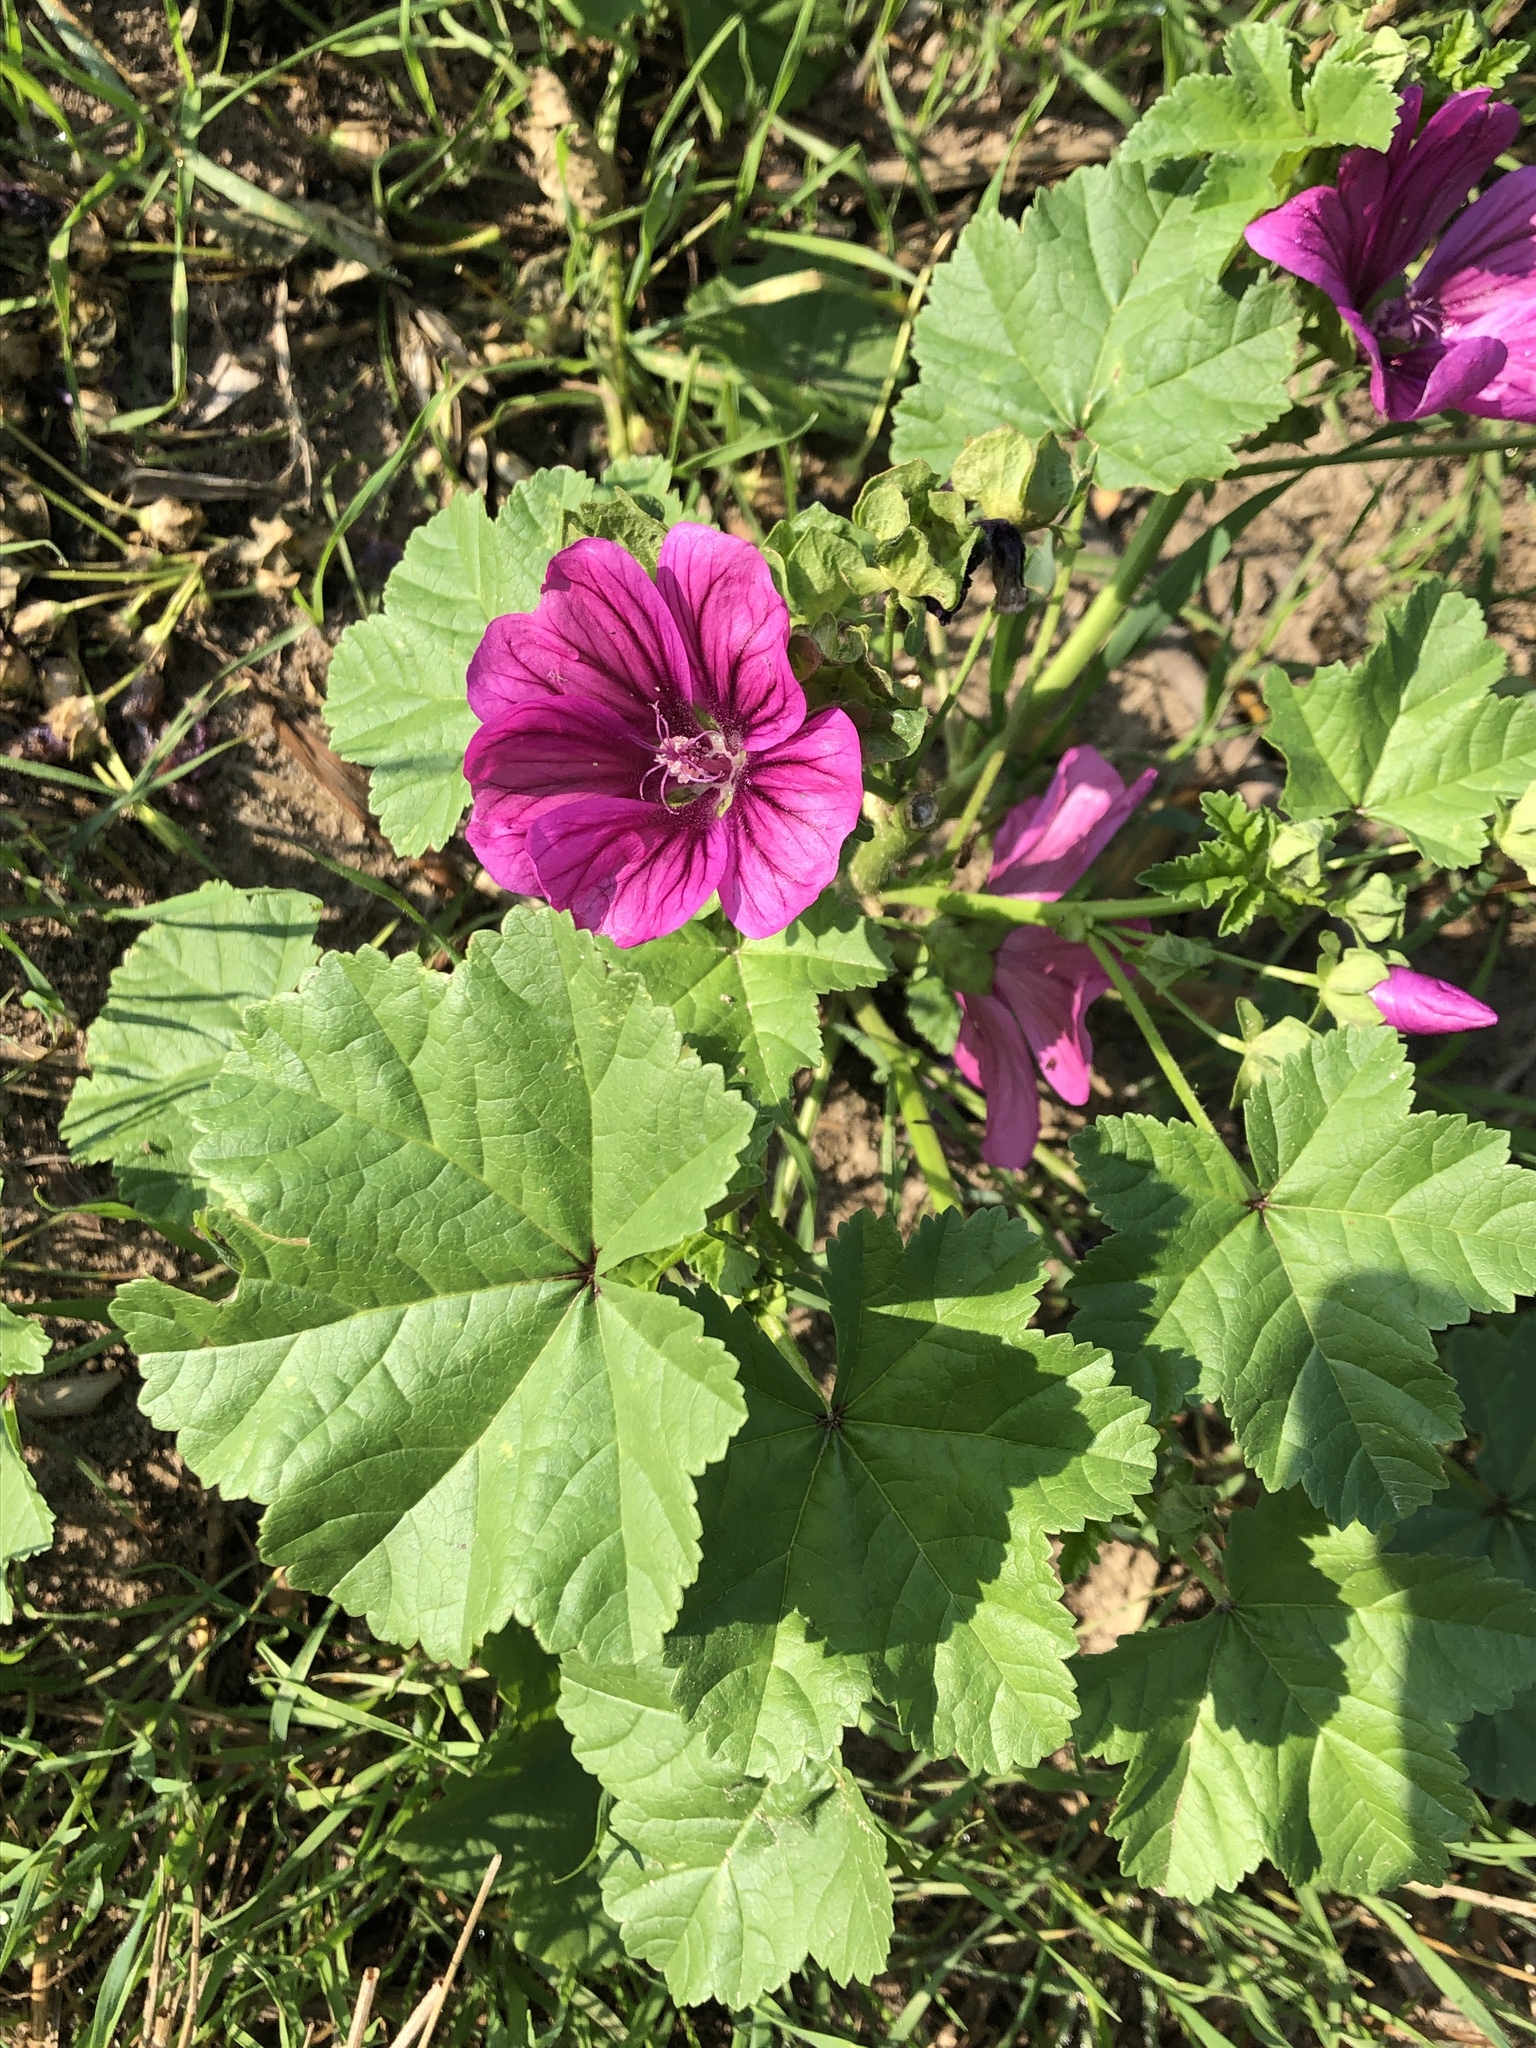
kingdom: Plantae
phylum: Tracheophyta
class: Magnoliopsida
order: Malvales
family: Malvaceae
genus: Malva
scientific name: Malva sylvestris
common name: Common mallow
